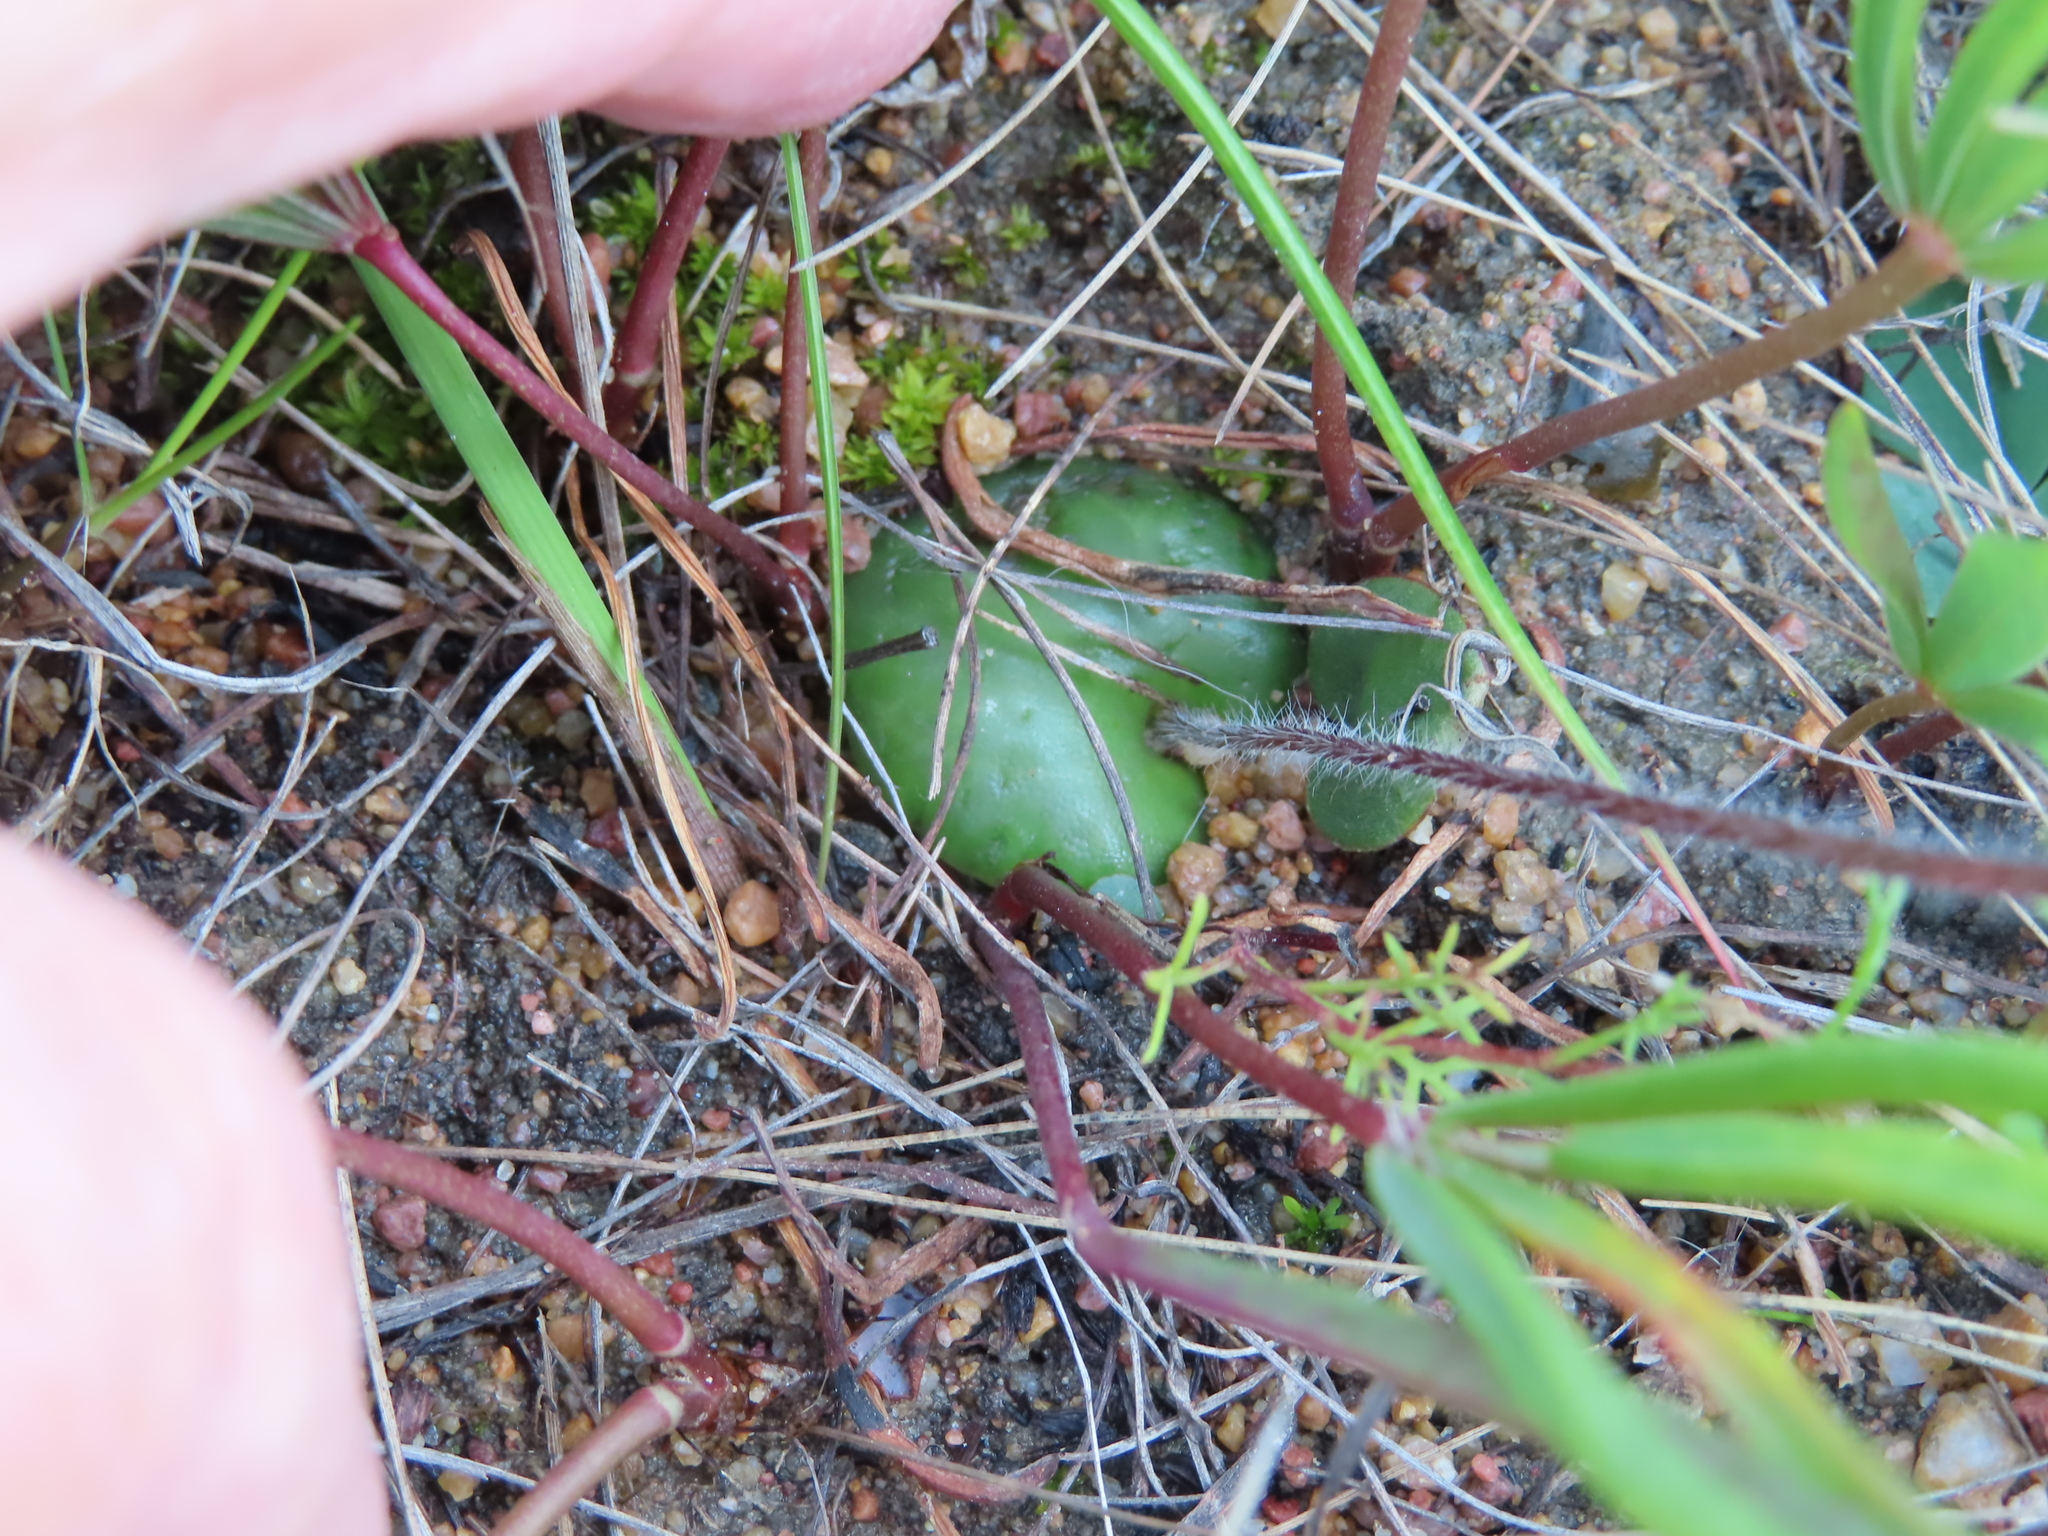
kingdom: Plantae
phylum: Tracheophyta
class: Liliopsida
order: Asparagales
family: Orchidaceae
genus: Holothrix
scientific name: Holothrix burmanniana
